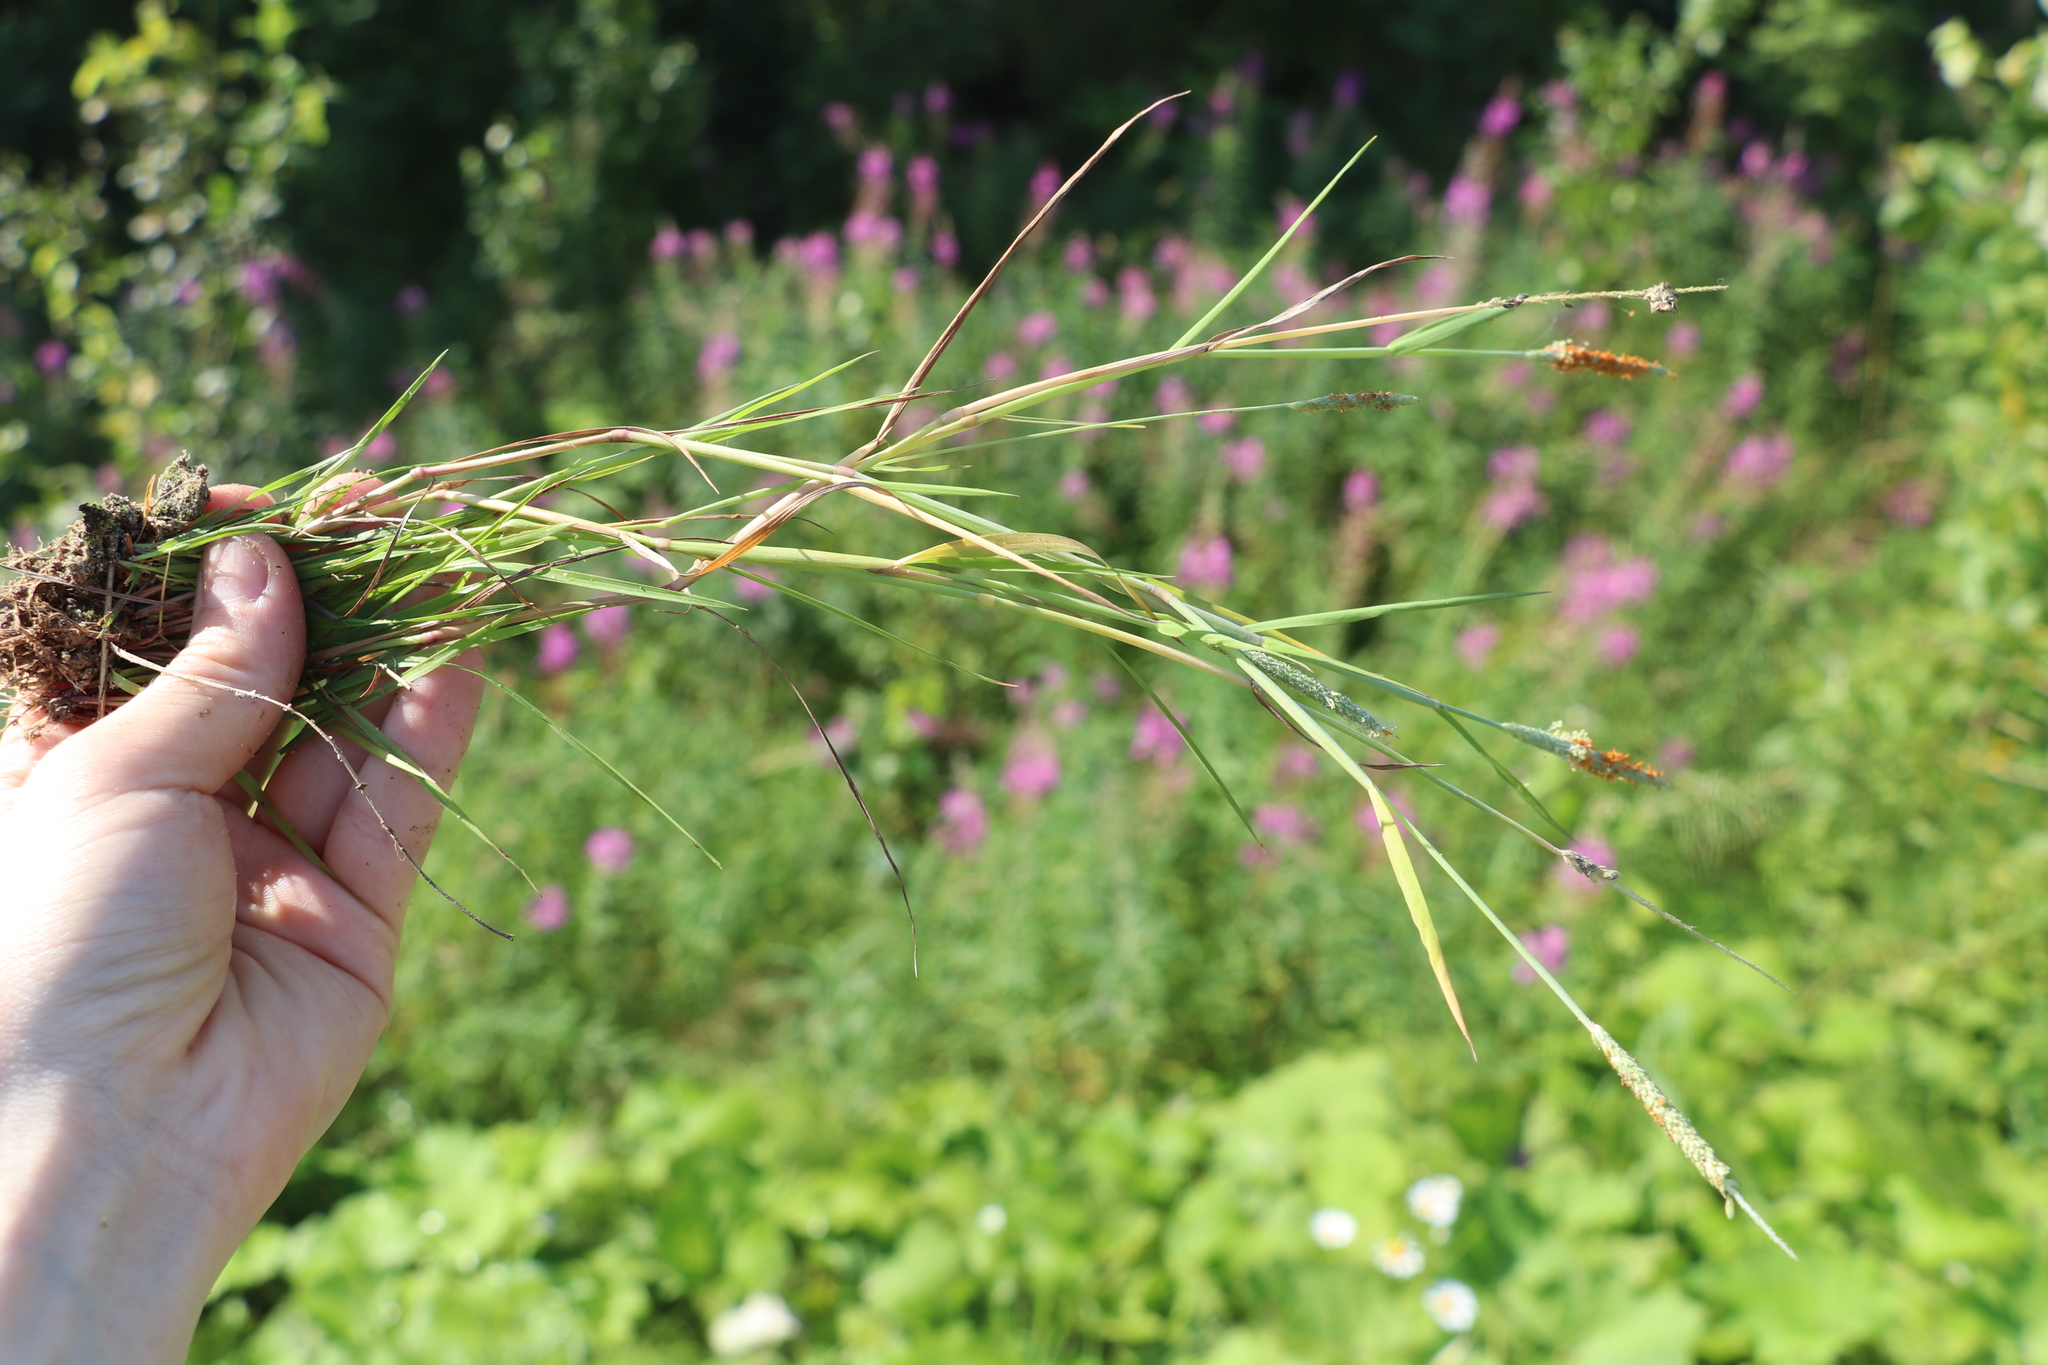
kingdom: Plantae
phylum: Tracheophyta
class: Liliopsida
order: Poales
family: Poaceae
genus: Alopecurus
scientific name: Alopecurus aequalis
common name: Orange foxtail
